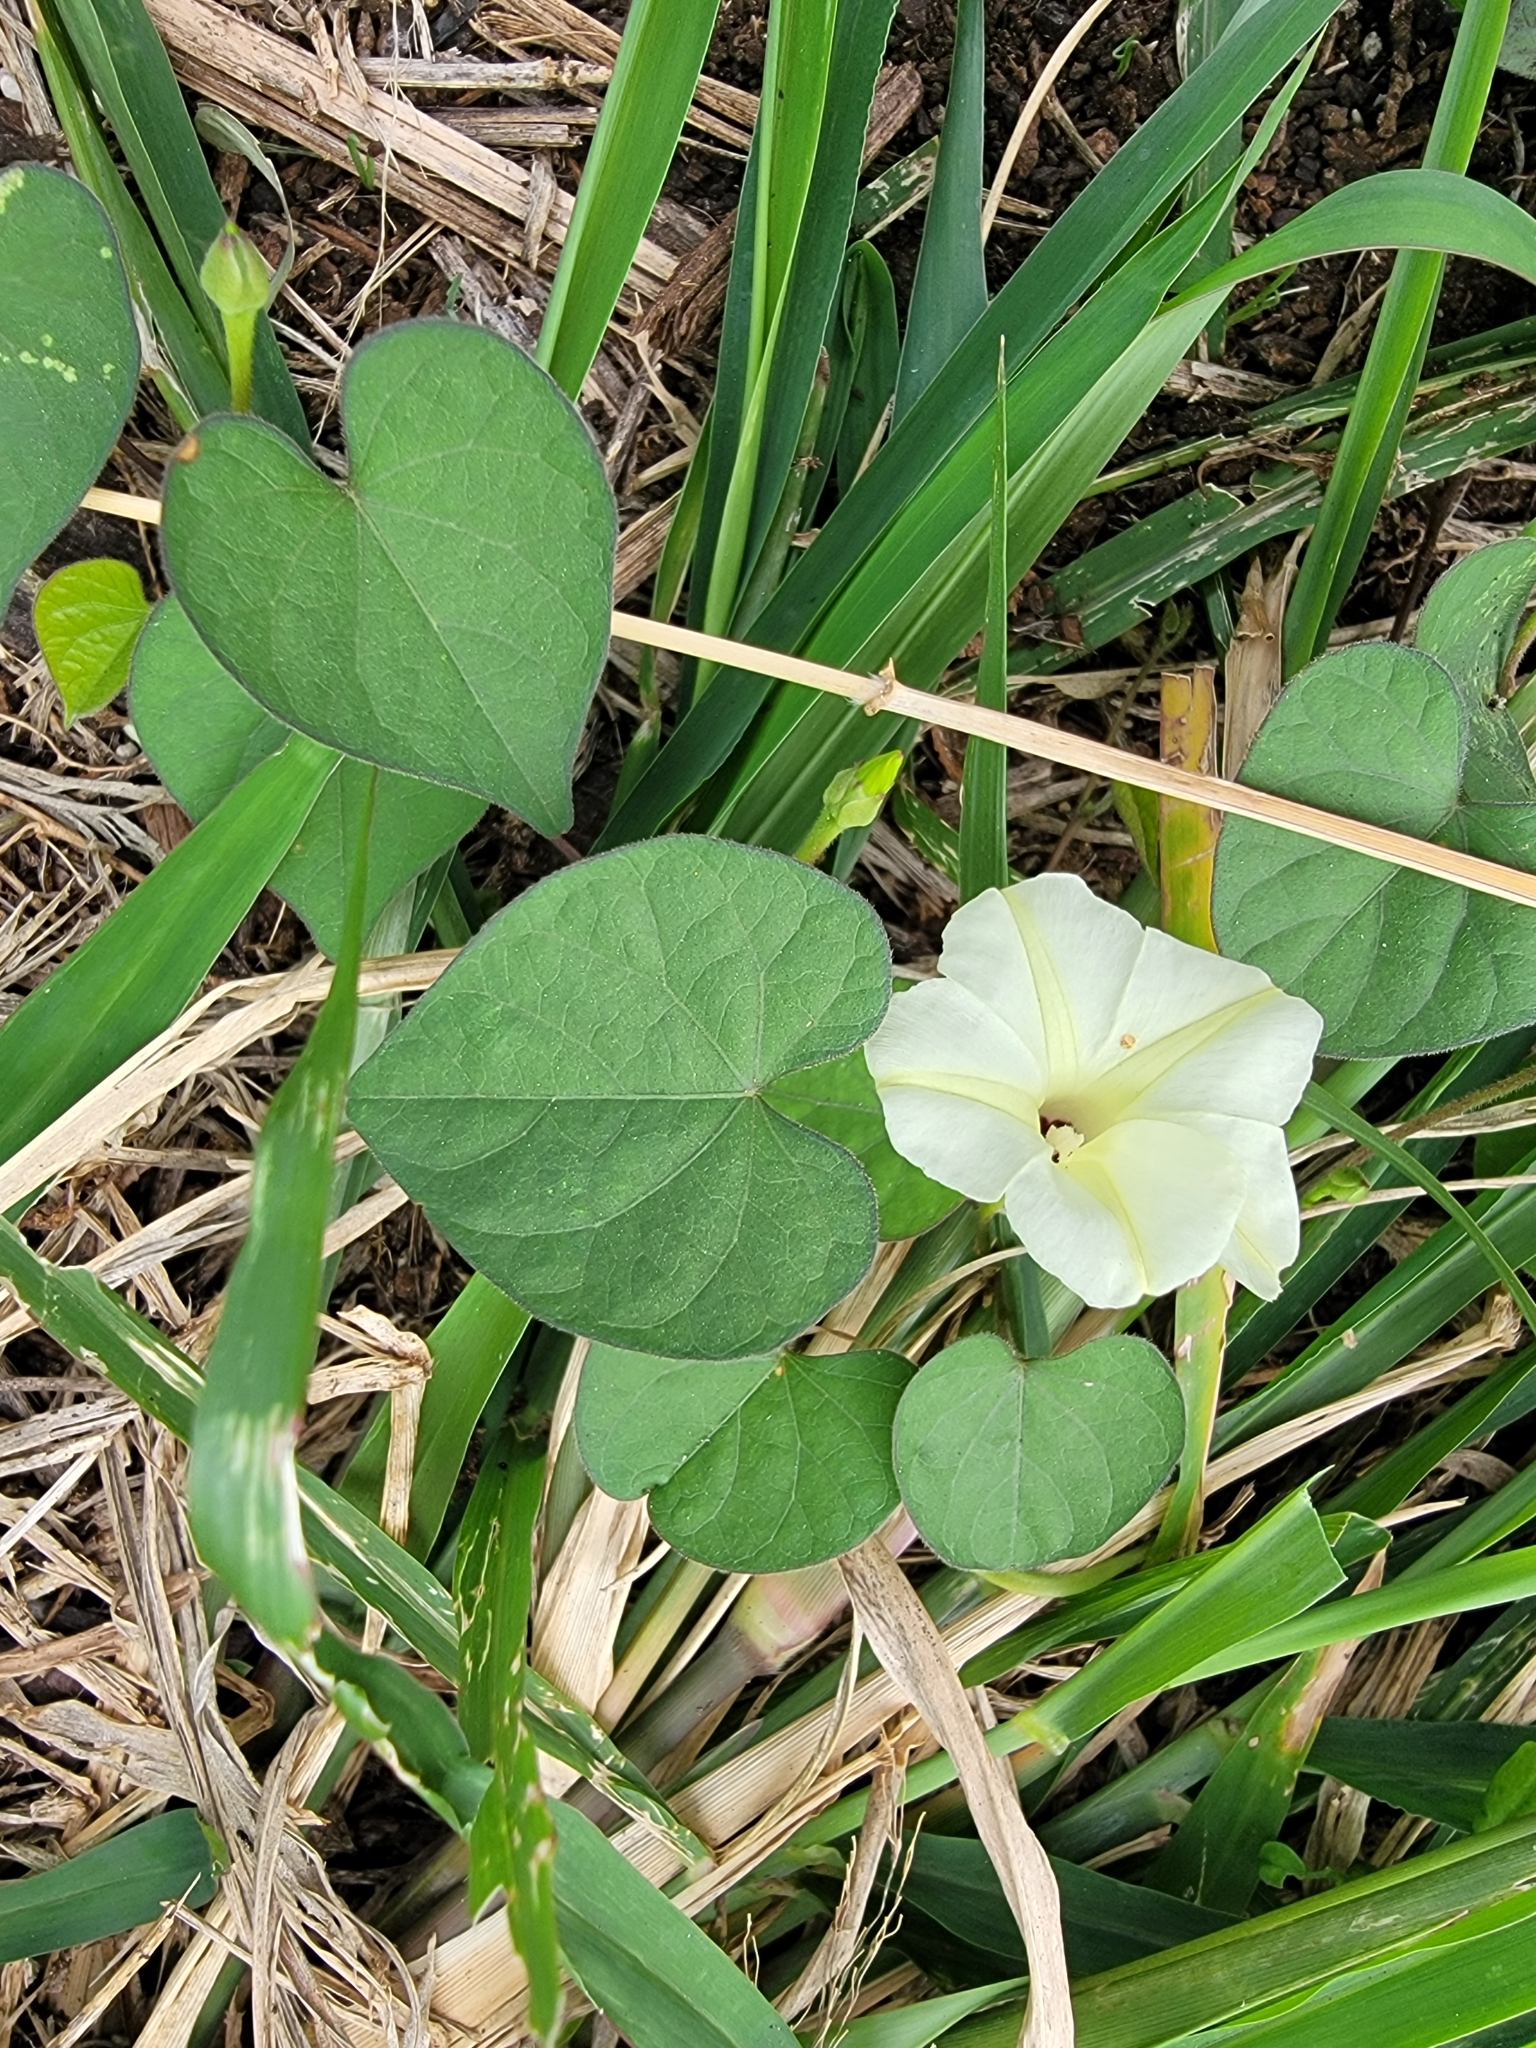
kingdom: Plantae
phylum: Tracheophyta
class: Magnoliopsida
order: Solanales
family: Convolvulaceae
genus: Ipomoea
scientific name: Ipomoea obscura
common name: Obscure morning-glory
